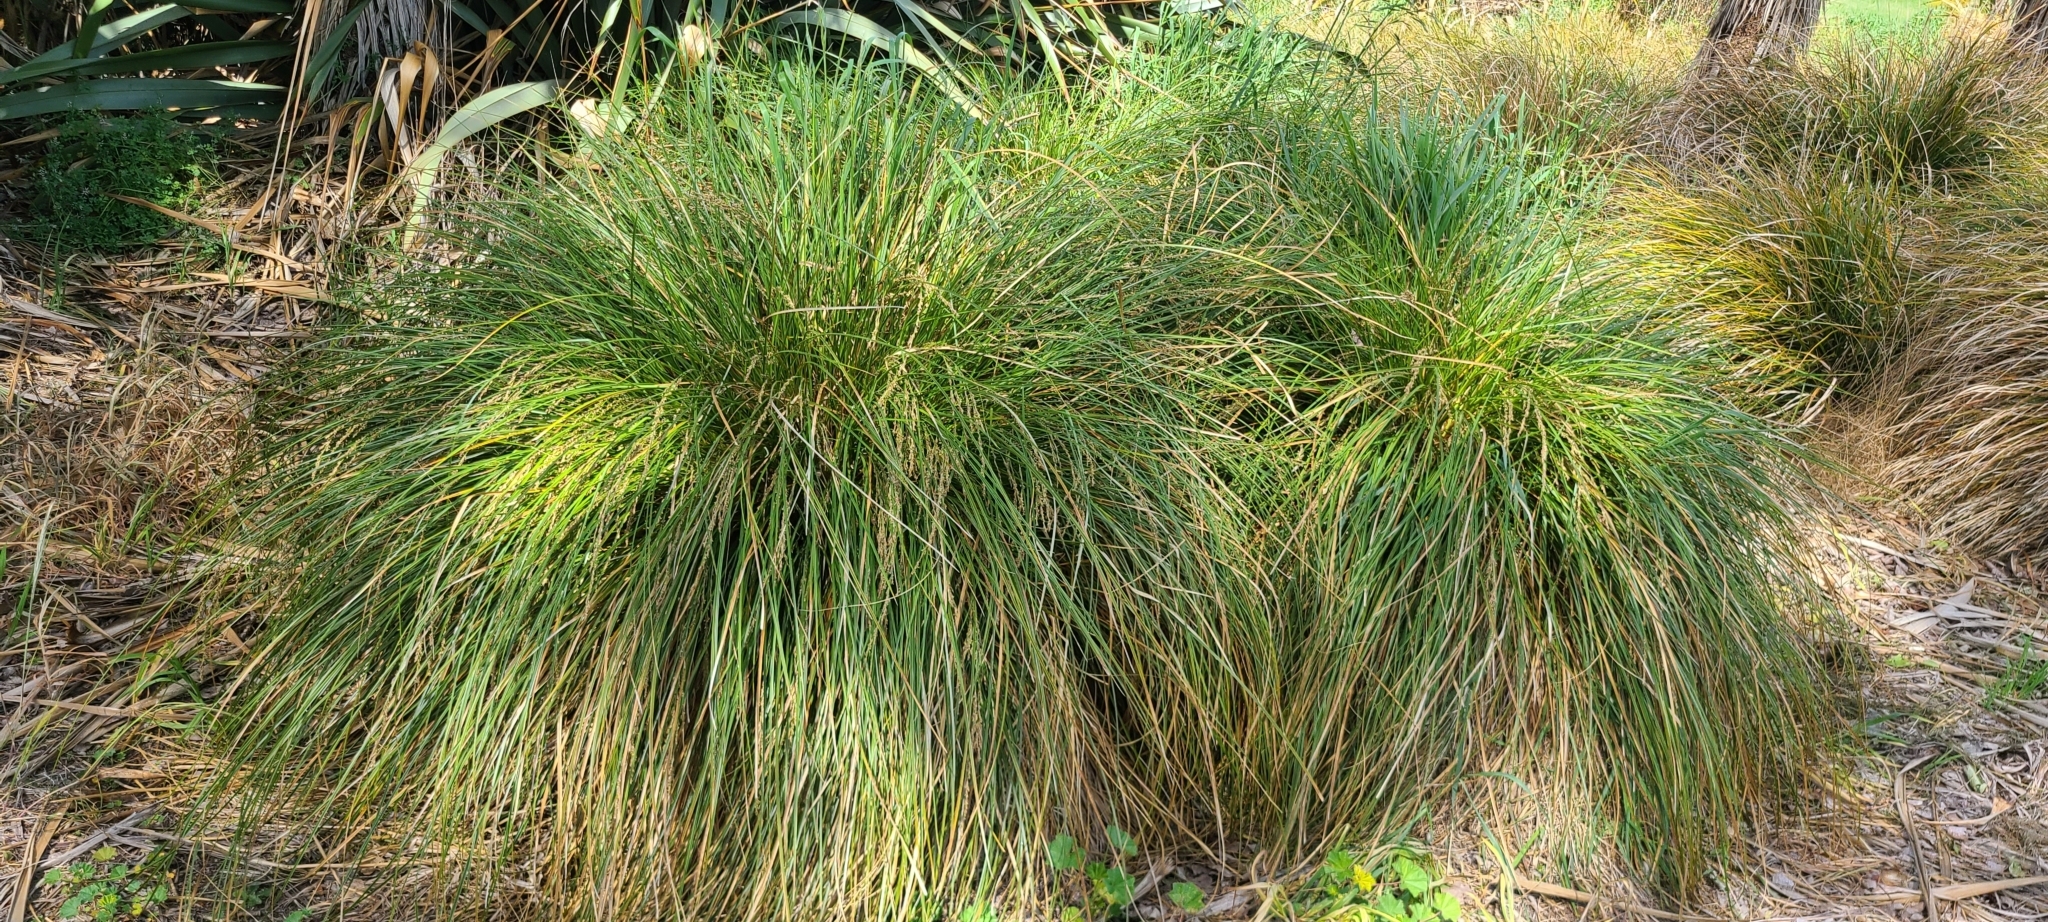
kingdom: Plantae
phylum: Tracheophyta
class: Liliopsida
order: Poales
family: Cyperaceae
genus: Carex
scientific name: Carex secta
